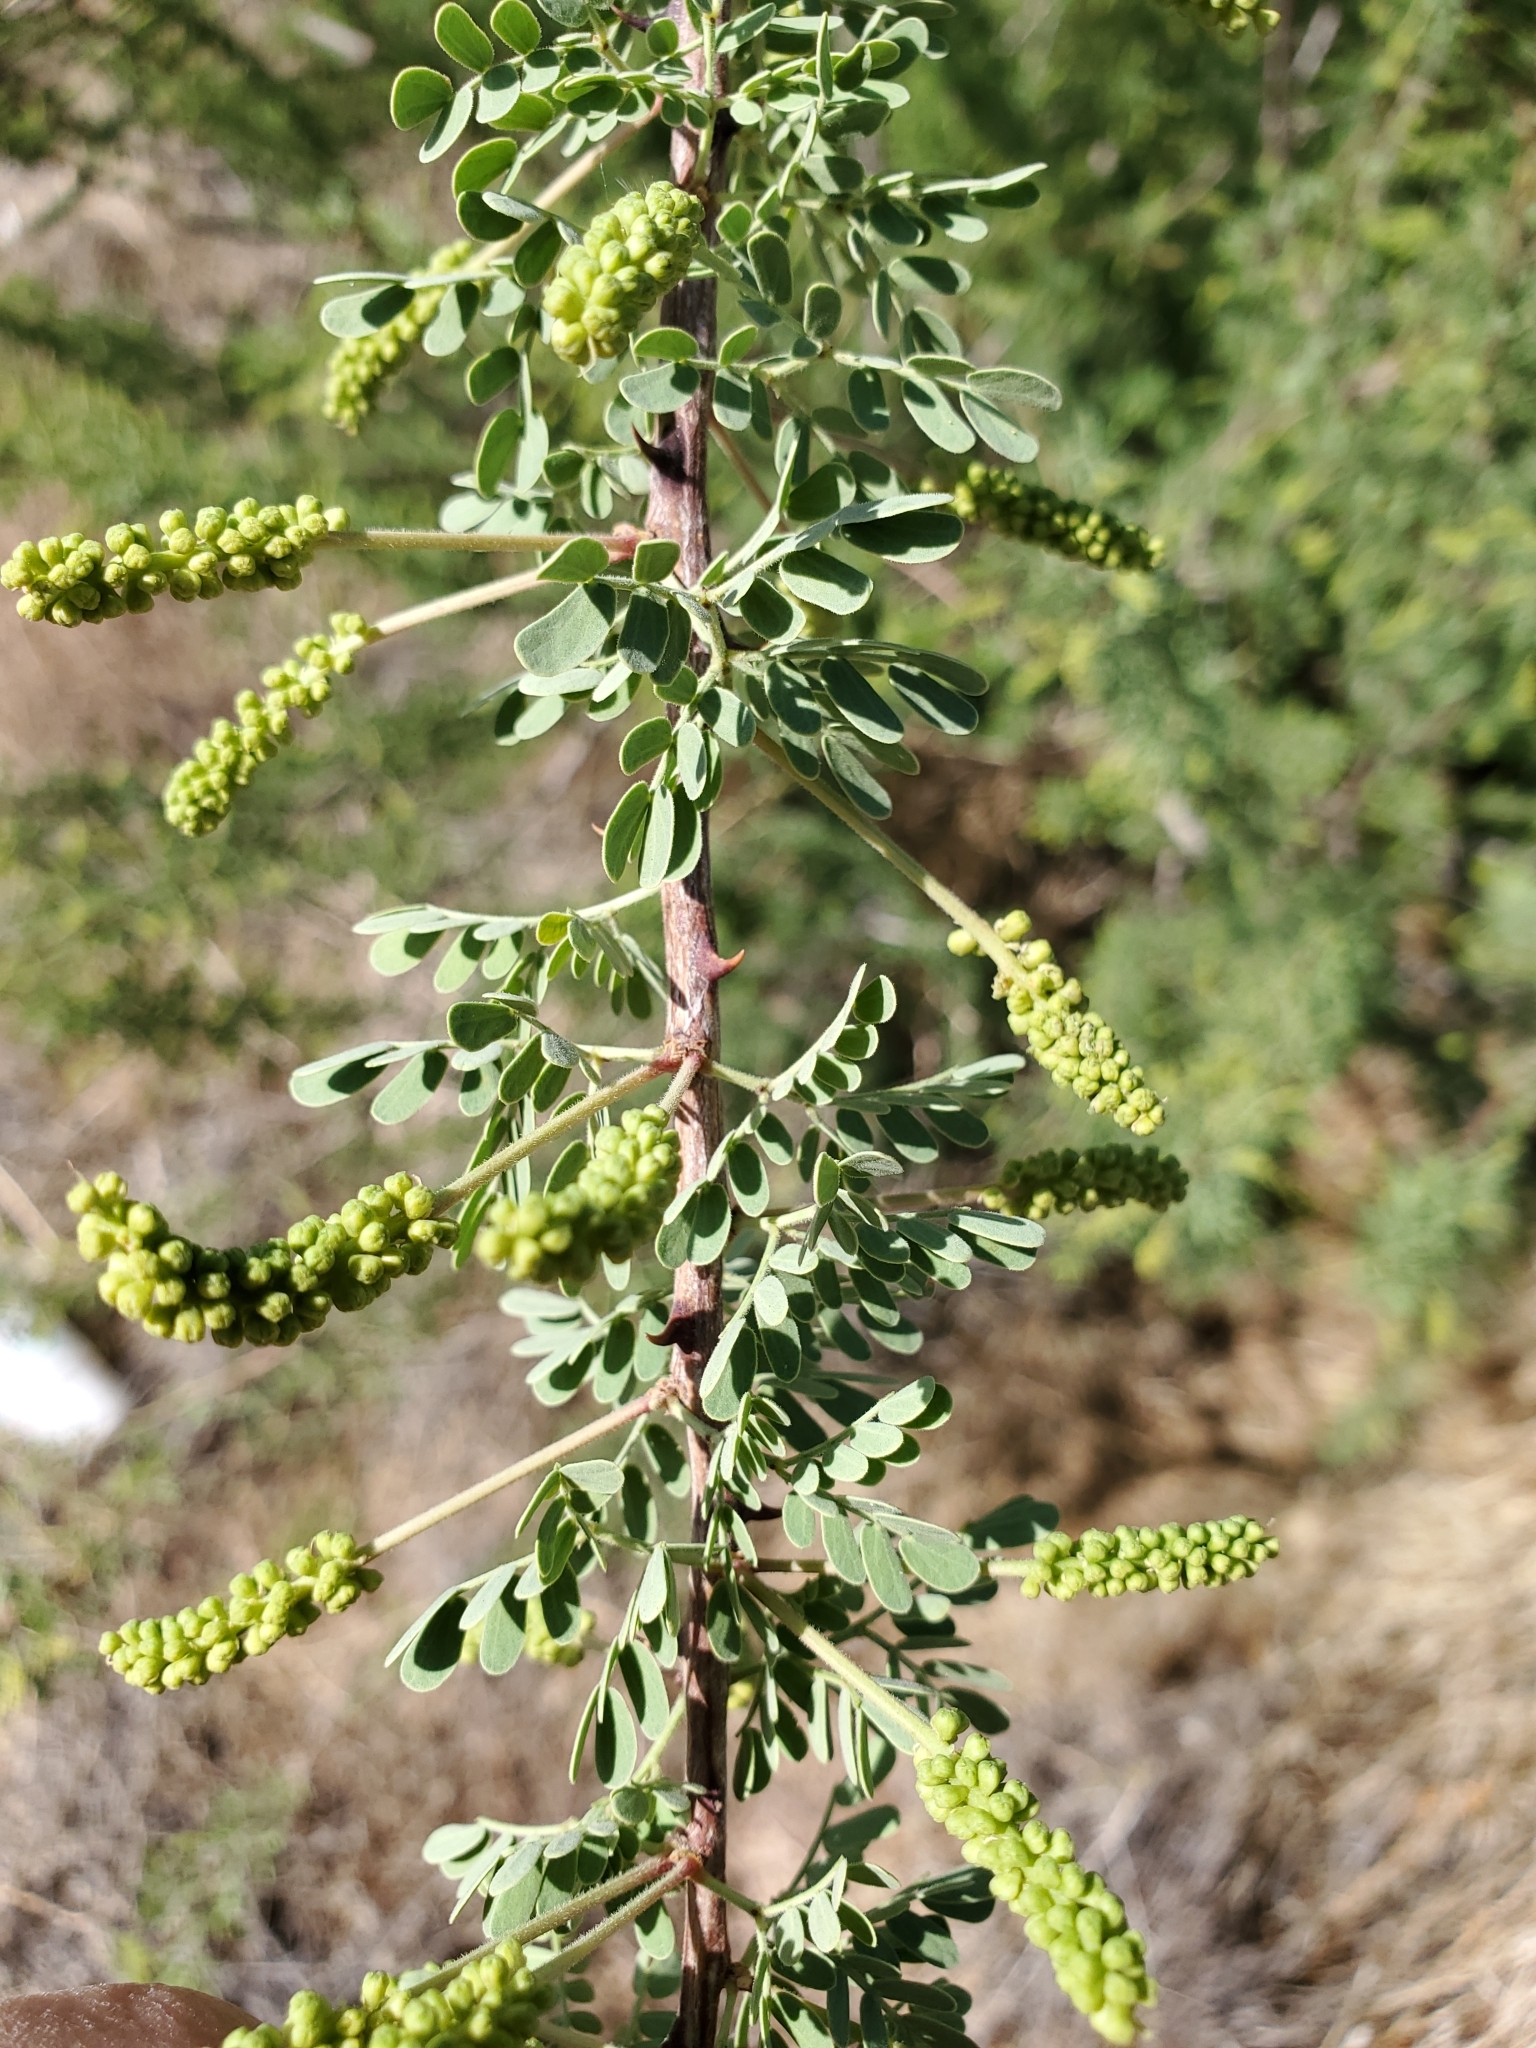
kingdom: Plantae
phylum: Tracheophyta
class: Magnoliopsida
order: Fabales
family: Fabaceae
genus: Senegalia
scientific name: Senegalia greggii
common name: Texas-mimosa
